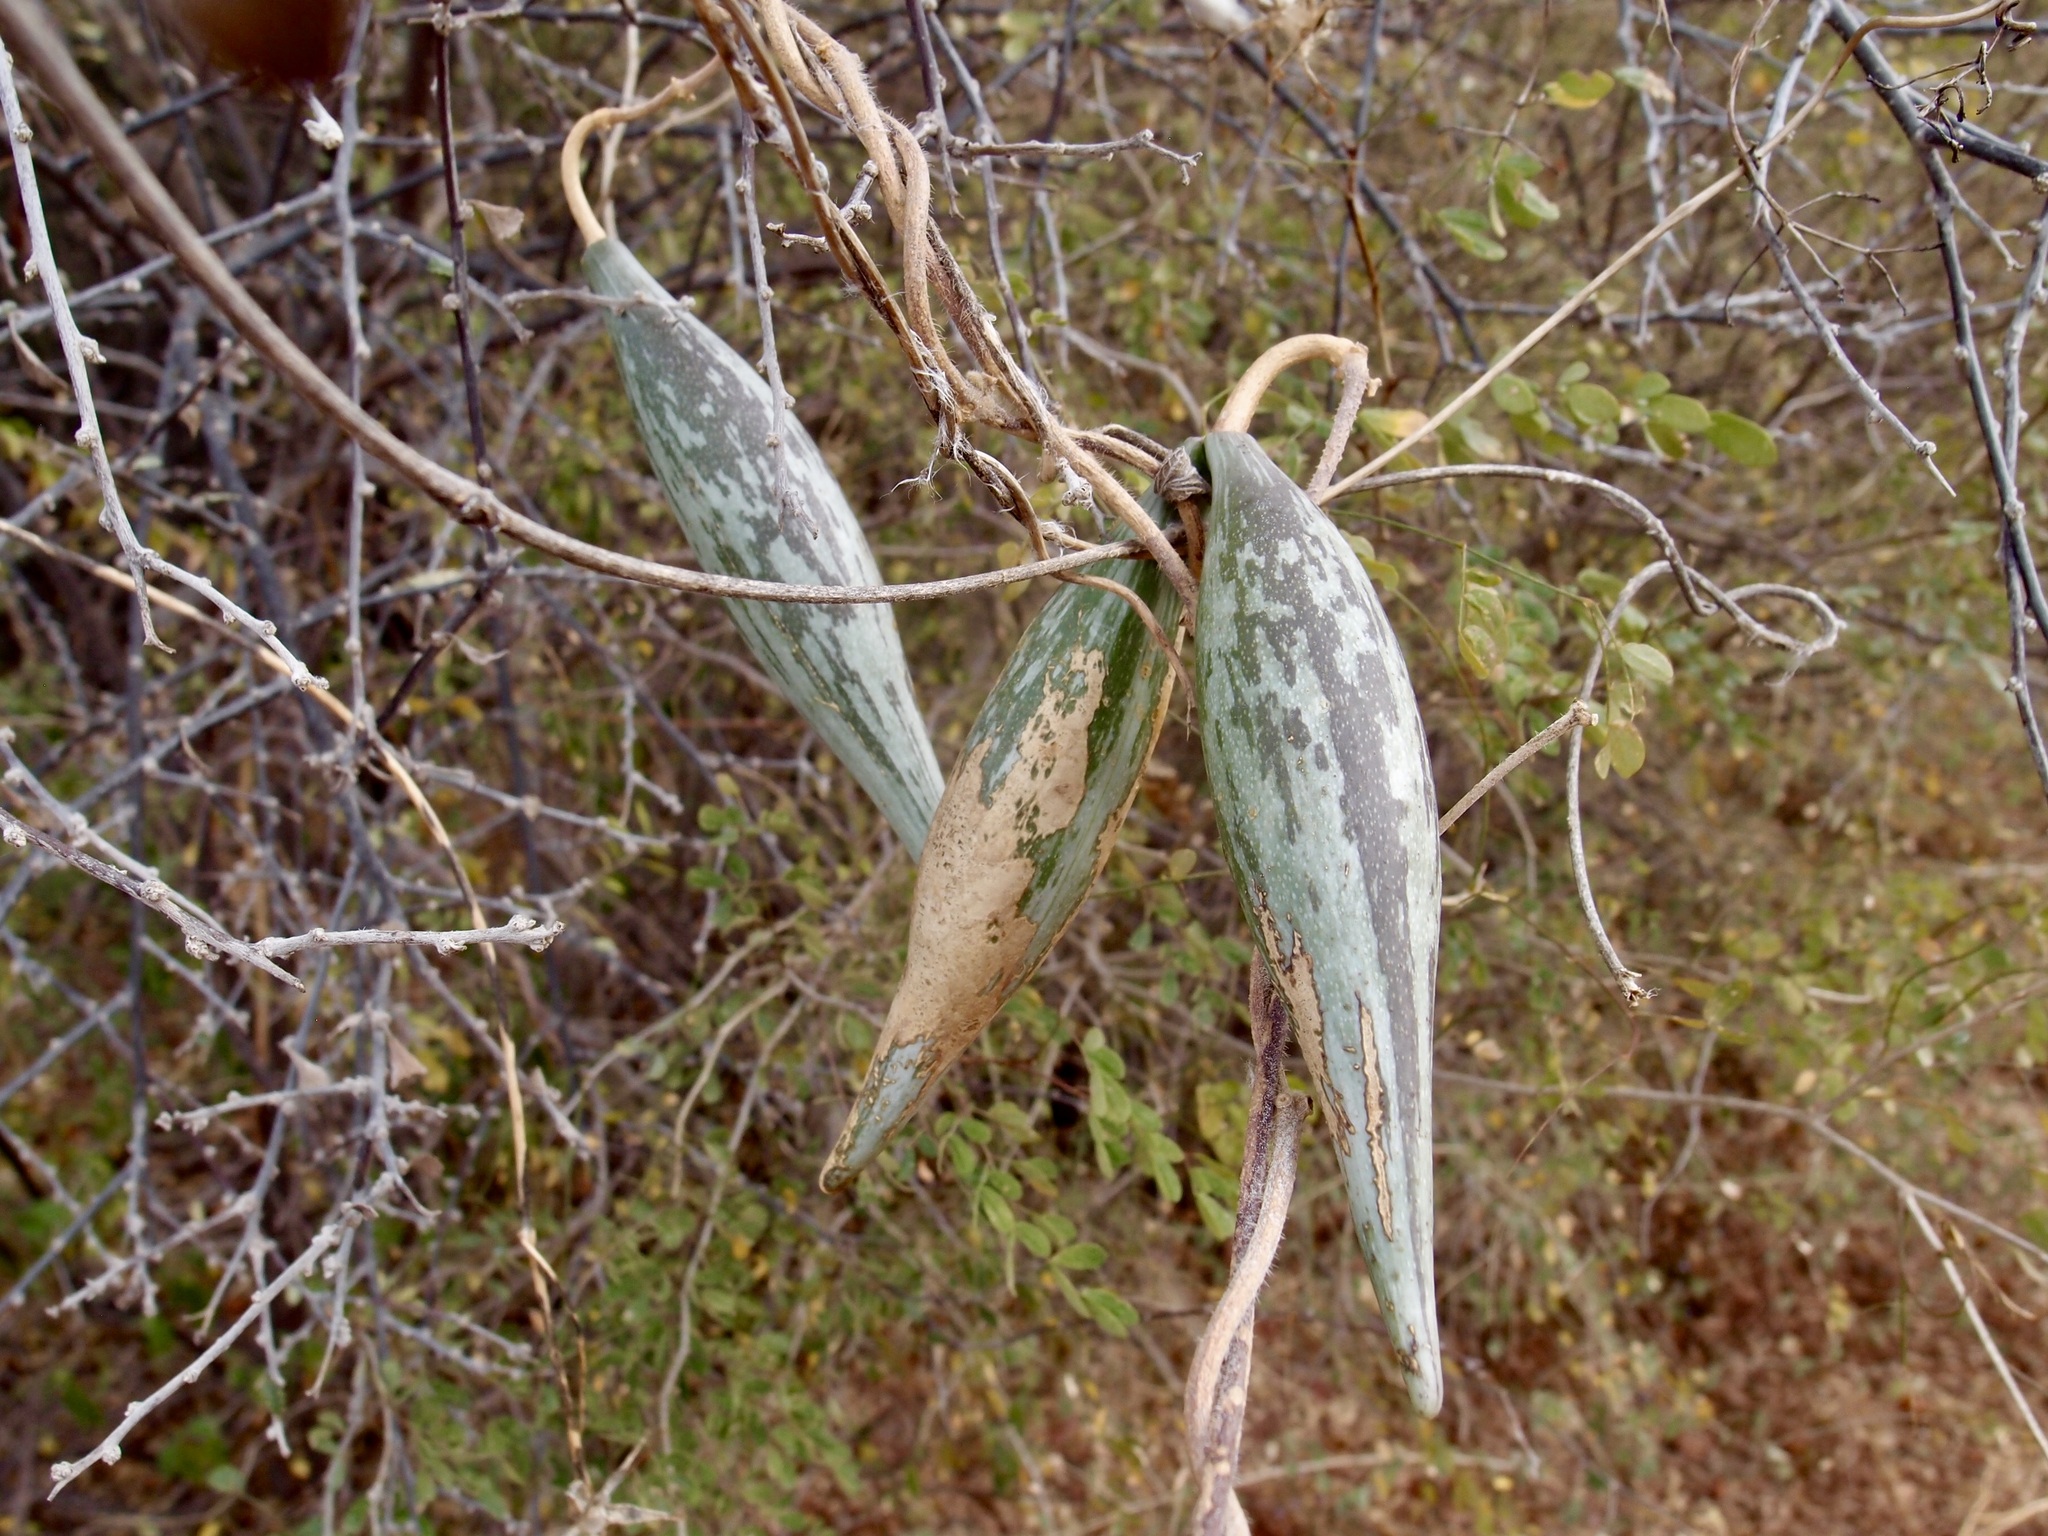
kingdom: Plantae
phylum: Tracheophyta
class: Magnoliopsida
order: Gentianales
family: Apocynaceae
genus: Polystemma
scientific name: Polystemma cordifolium
